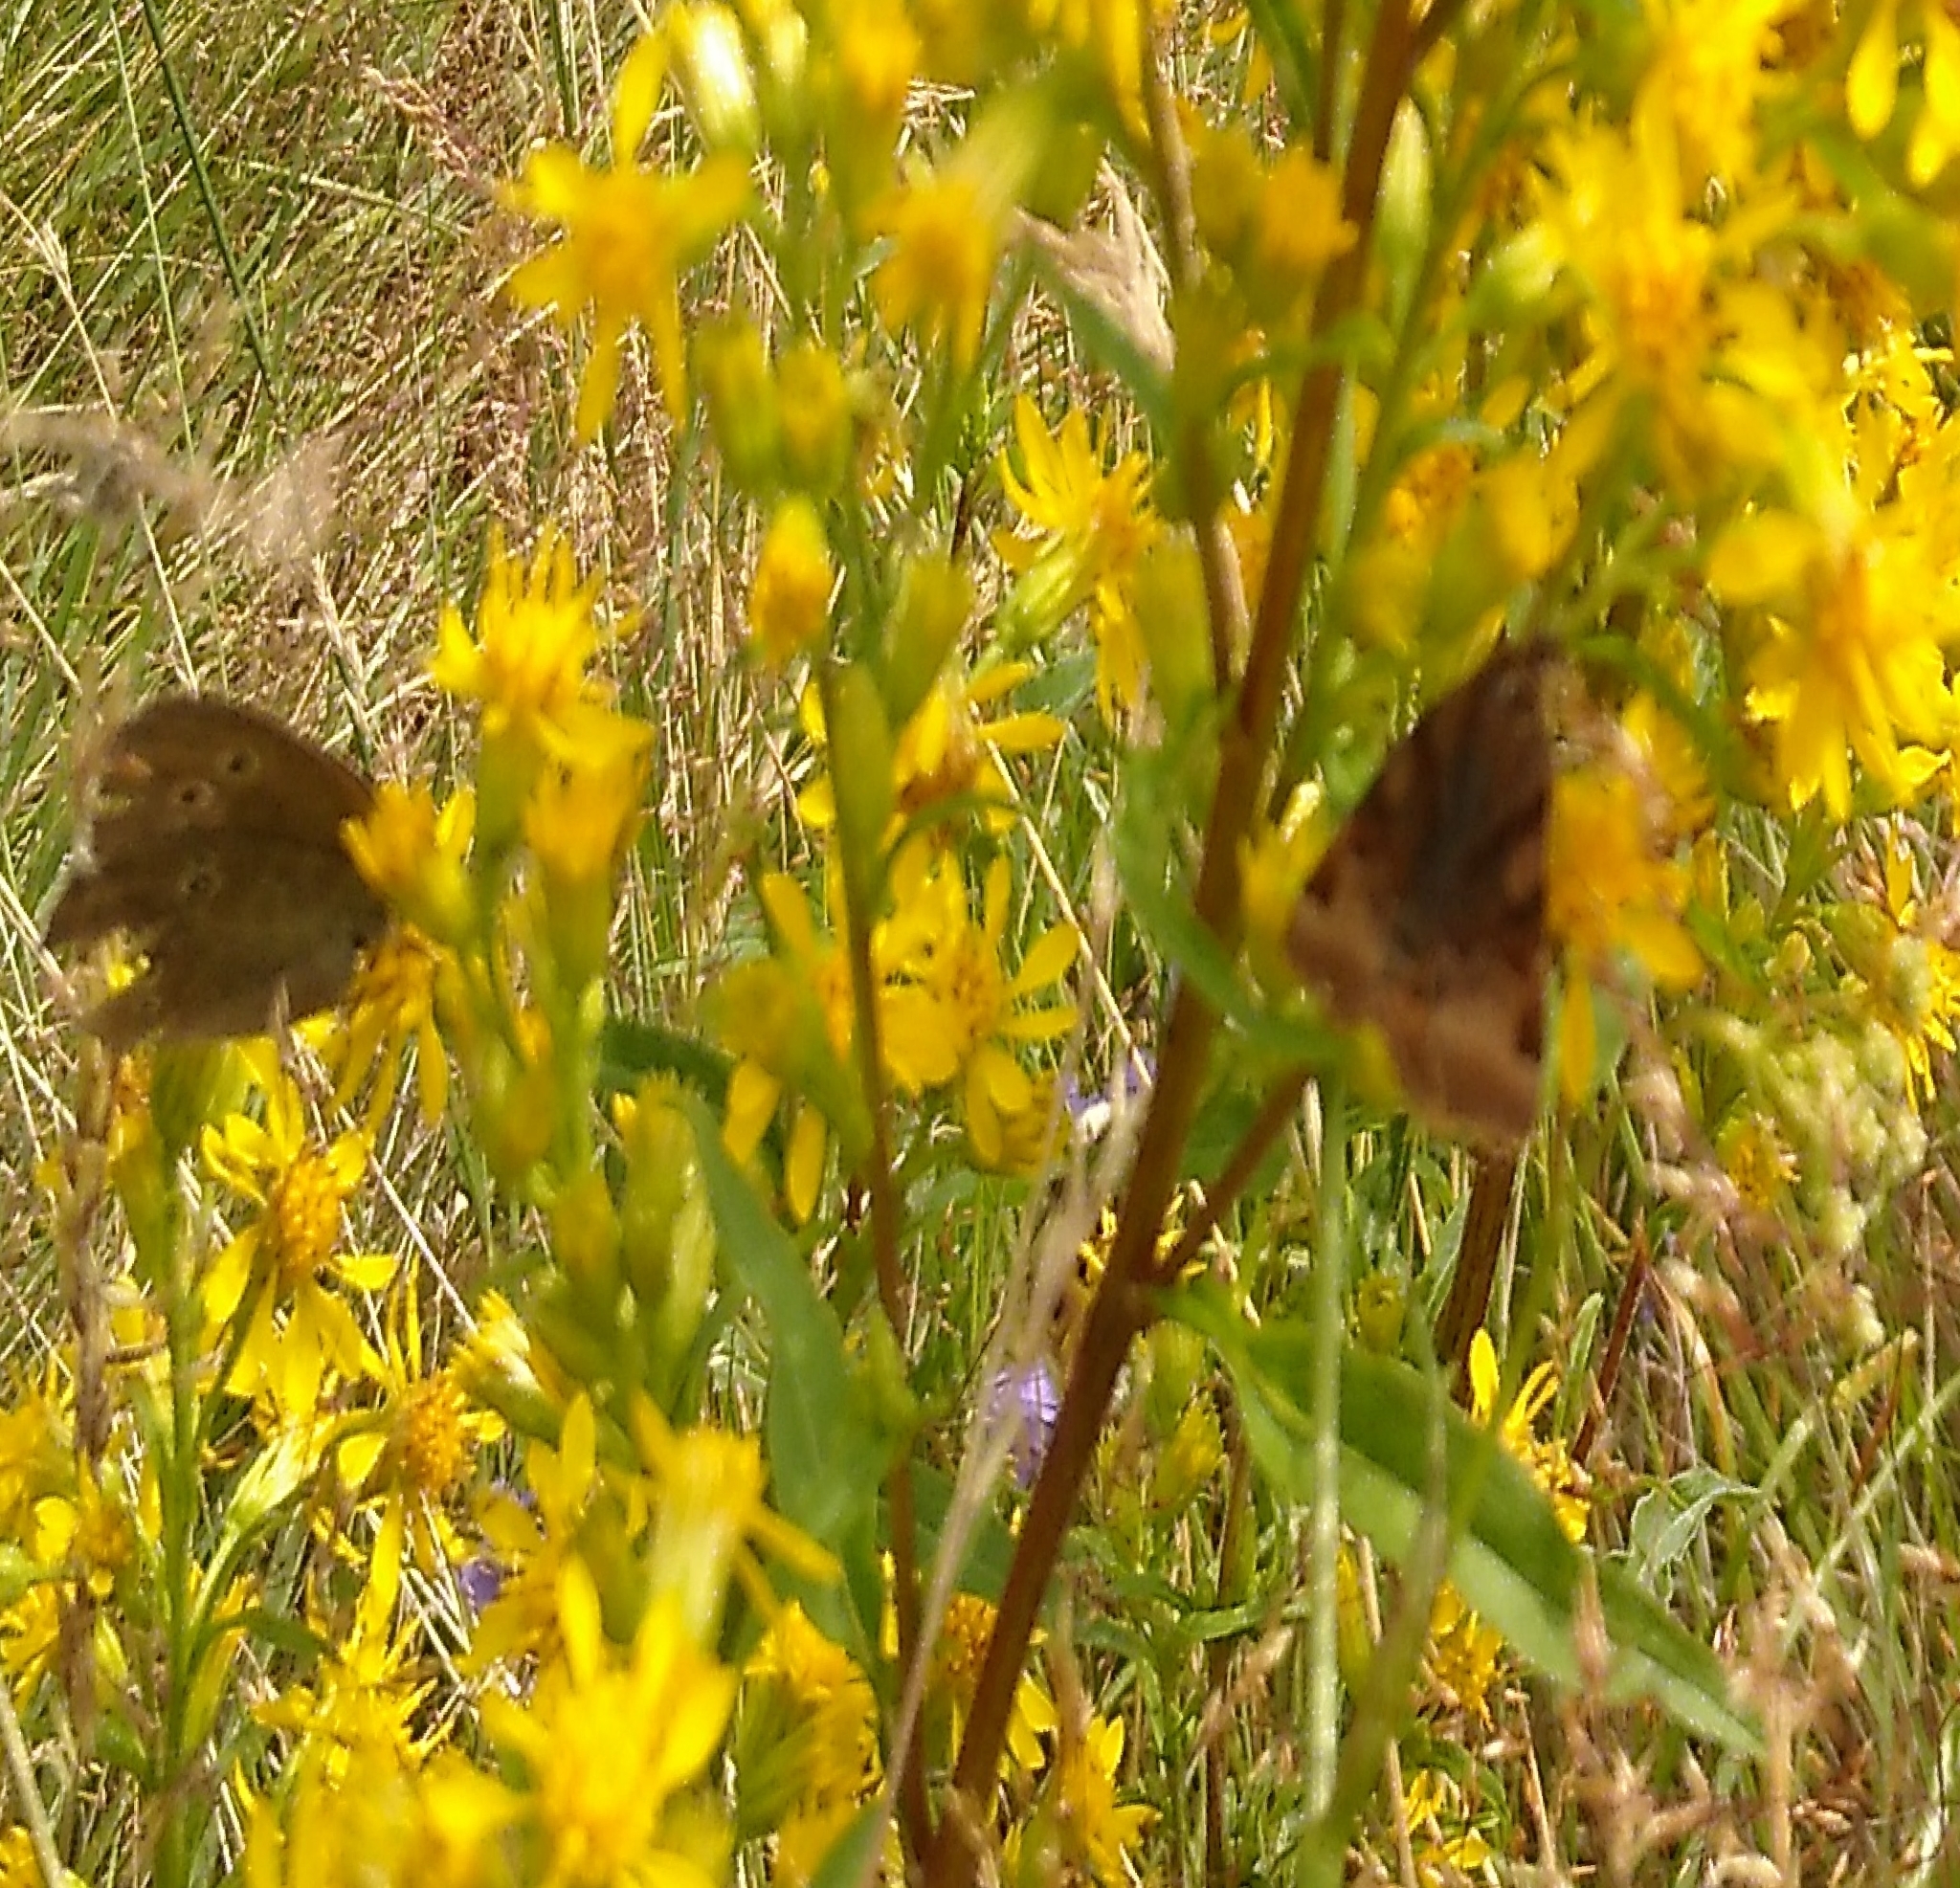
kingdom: Animalia
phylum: Arthropoda
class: Insecta
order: Lepidoptera
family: Nymphalidae
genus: Aphantopus
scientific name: Aphantopus hyperantus
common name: Ringlet
